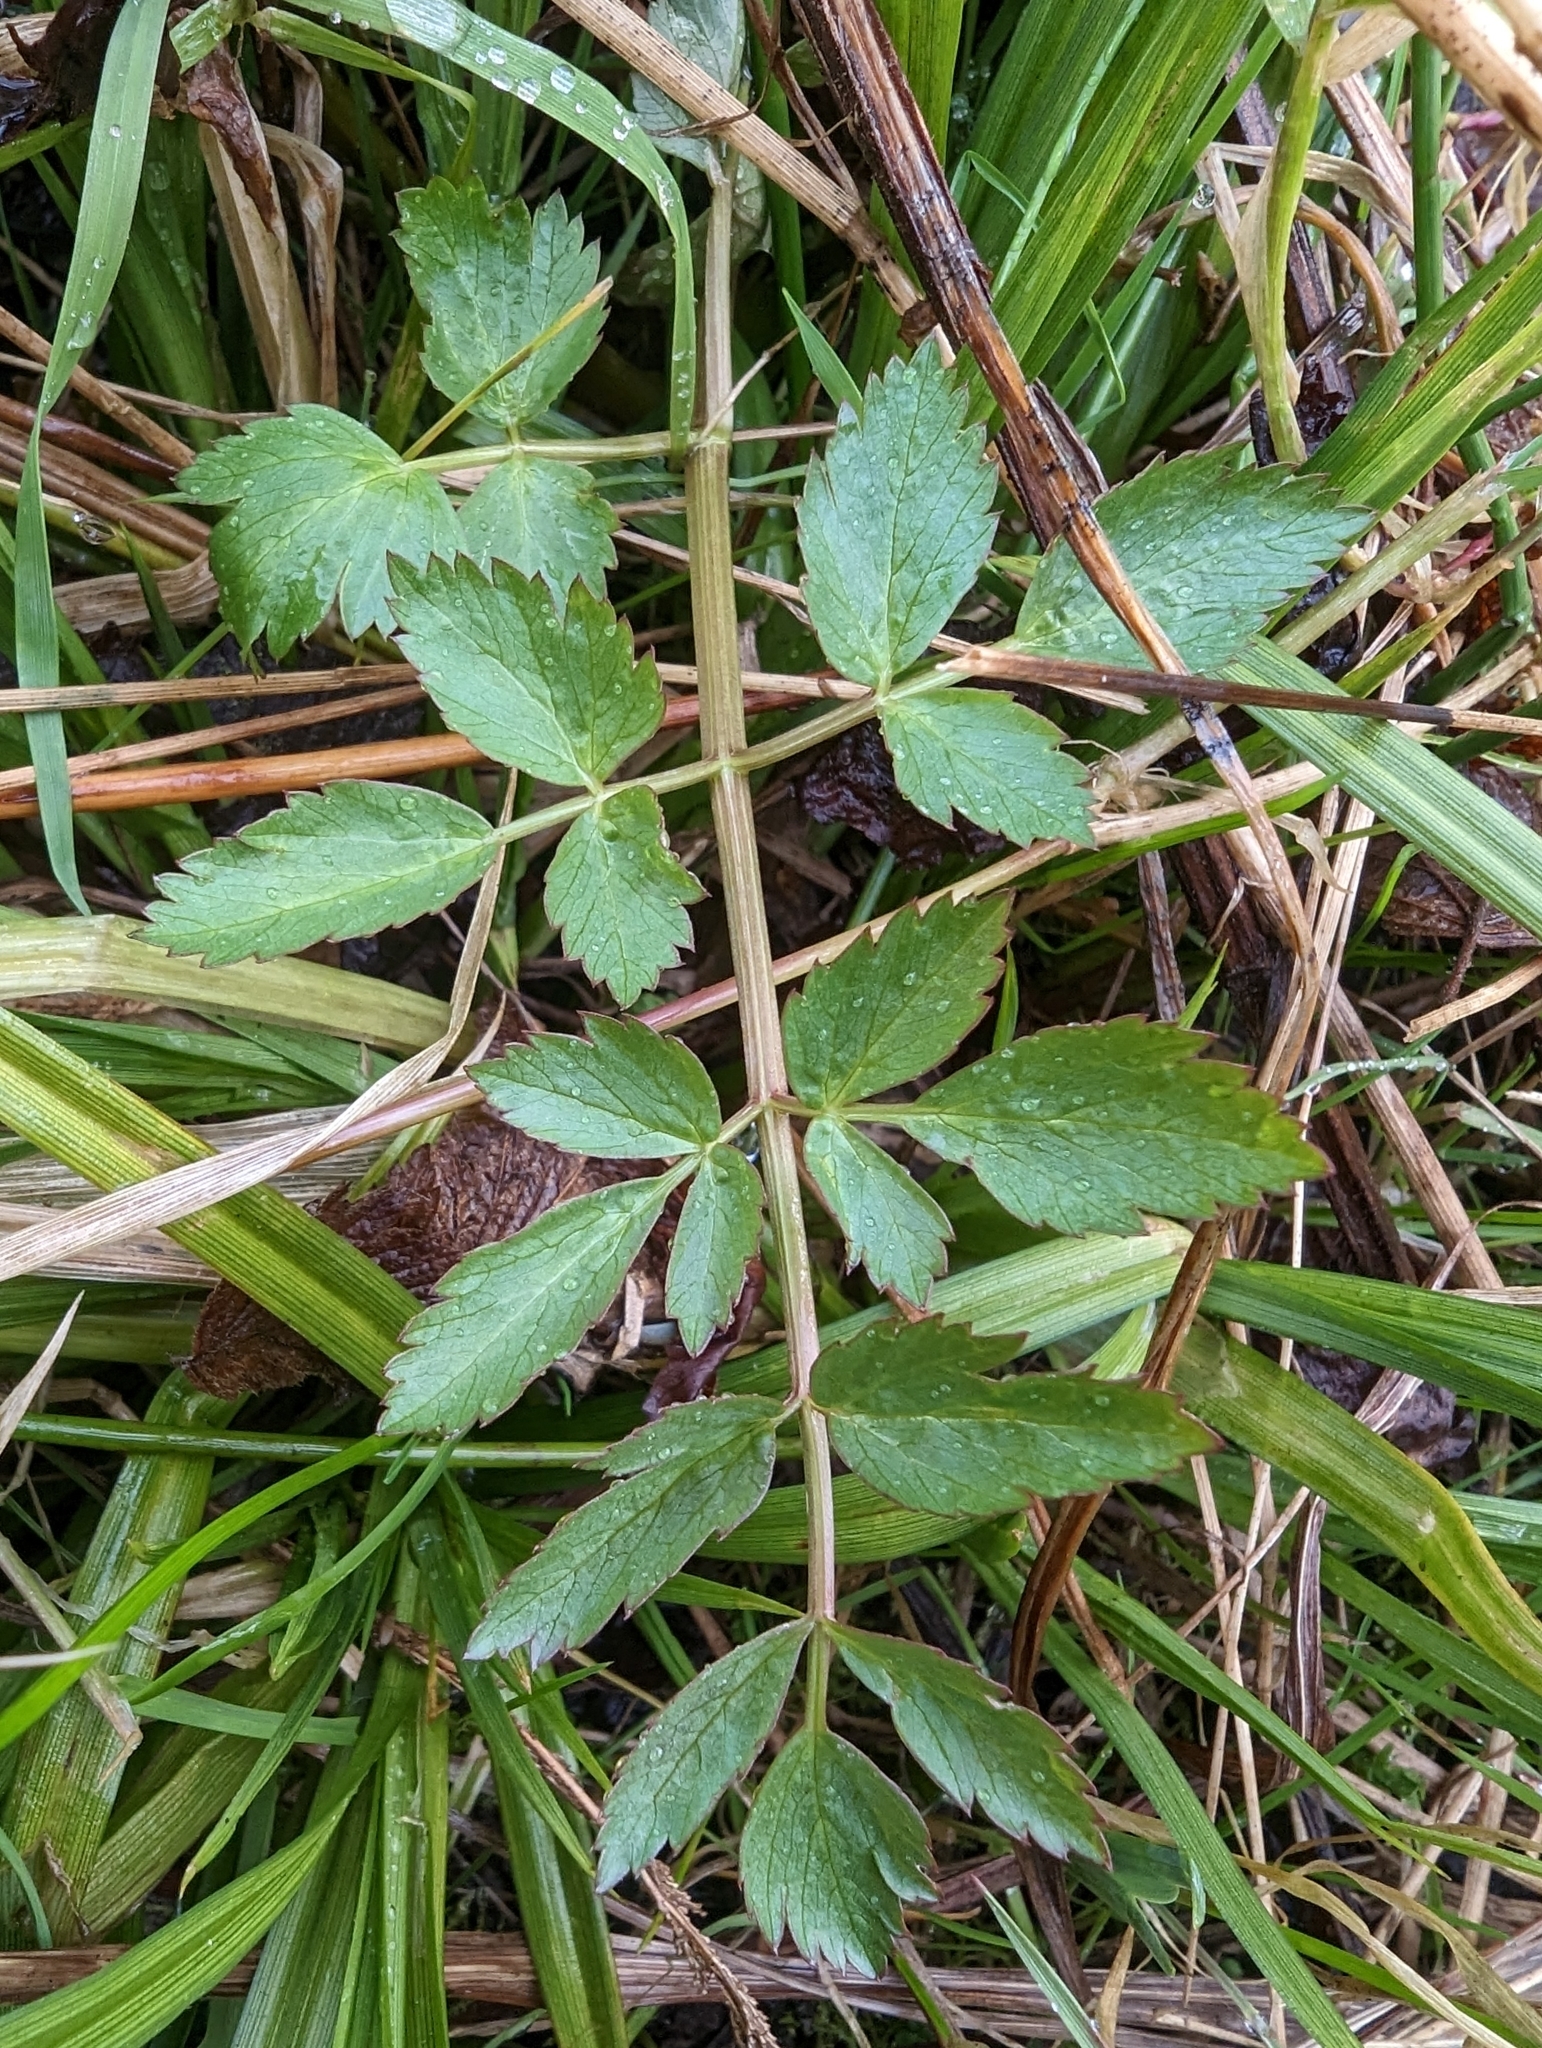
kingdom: Plantae
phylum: Tracheophyta
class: Magnoliopsida
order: Apiales
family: Apiaceae
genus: Oenanthe
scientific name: Oenanthe sarmentosa
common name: American water-parsley
